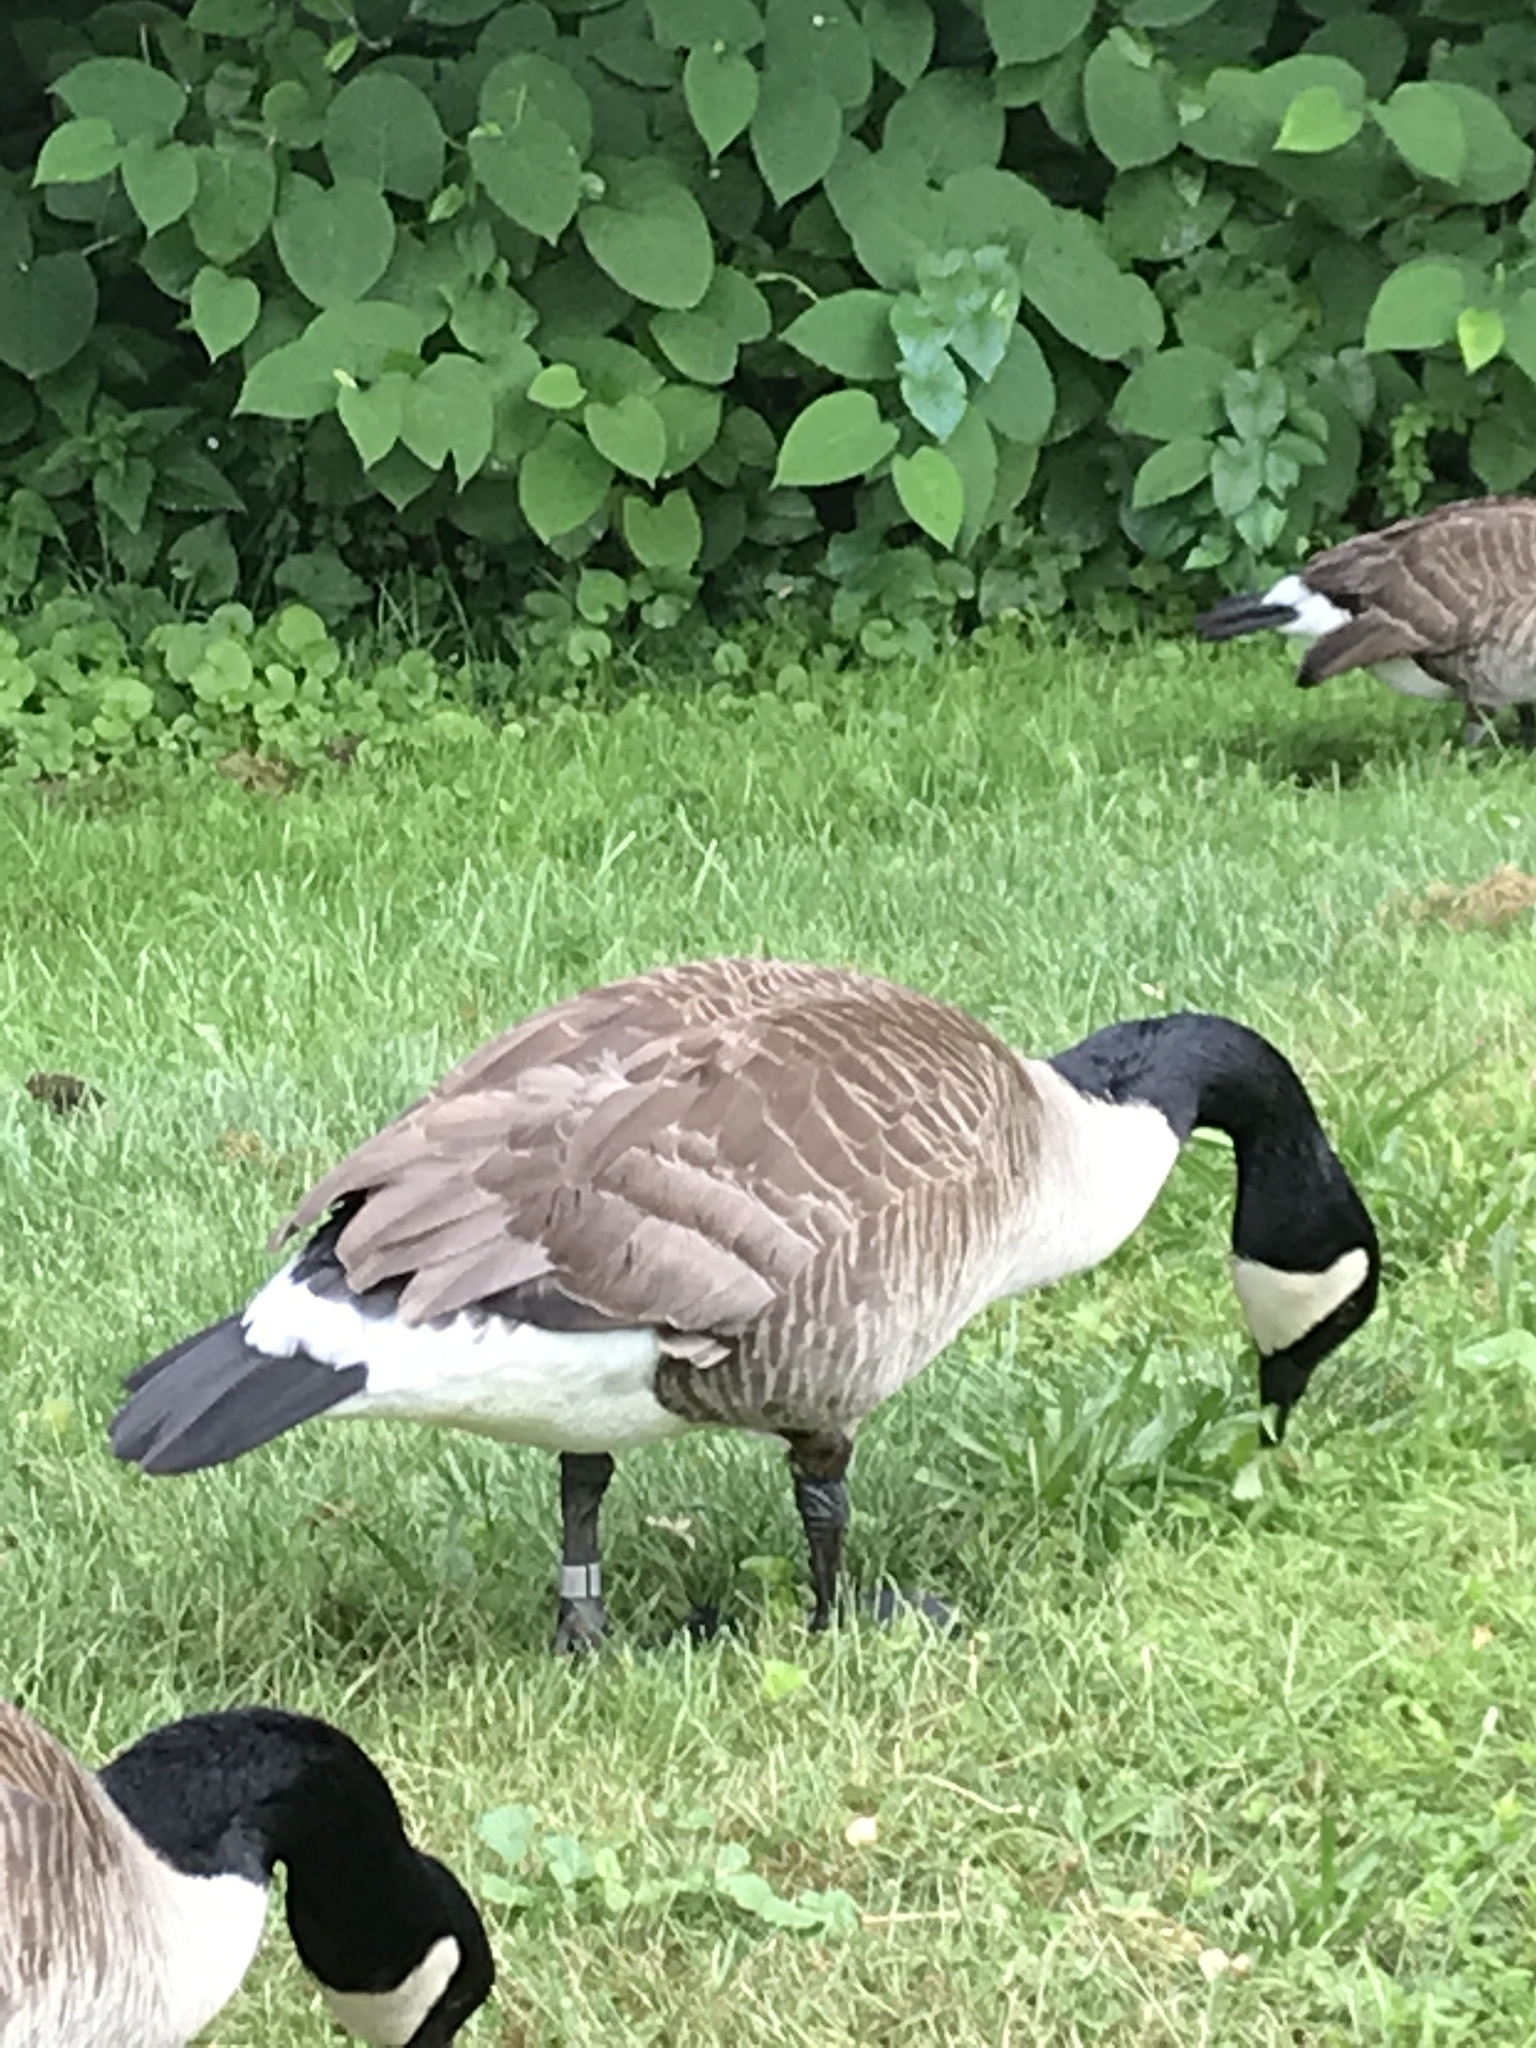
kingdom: Animalia
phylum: Chordata
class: Aves
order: Anseriformes
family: Anatidae
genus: Branta
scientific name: Branta canadensis
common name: Canada goose
